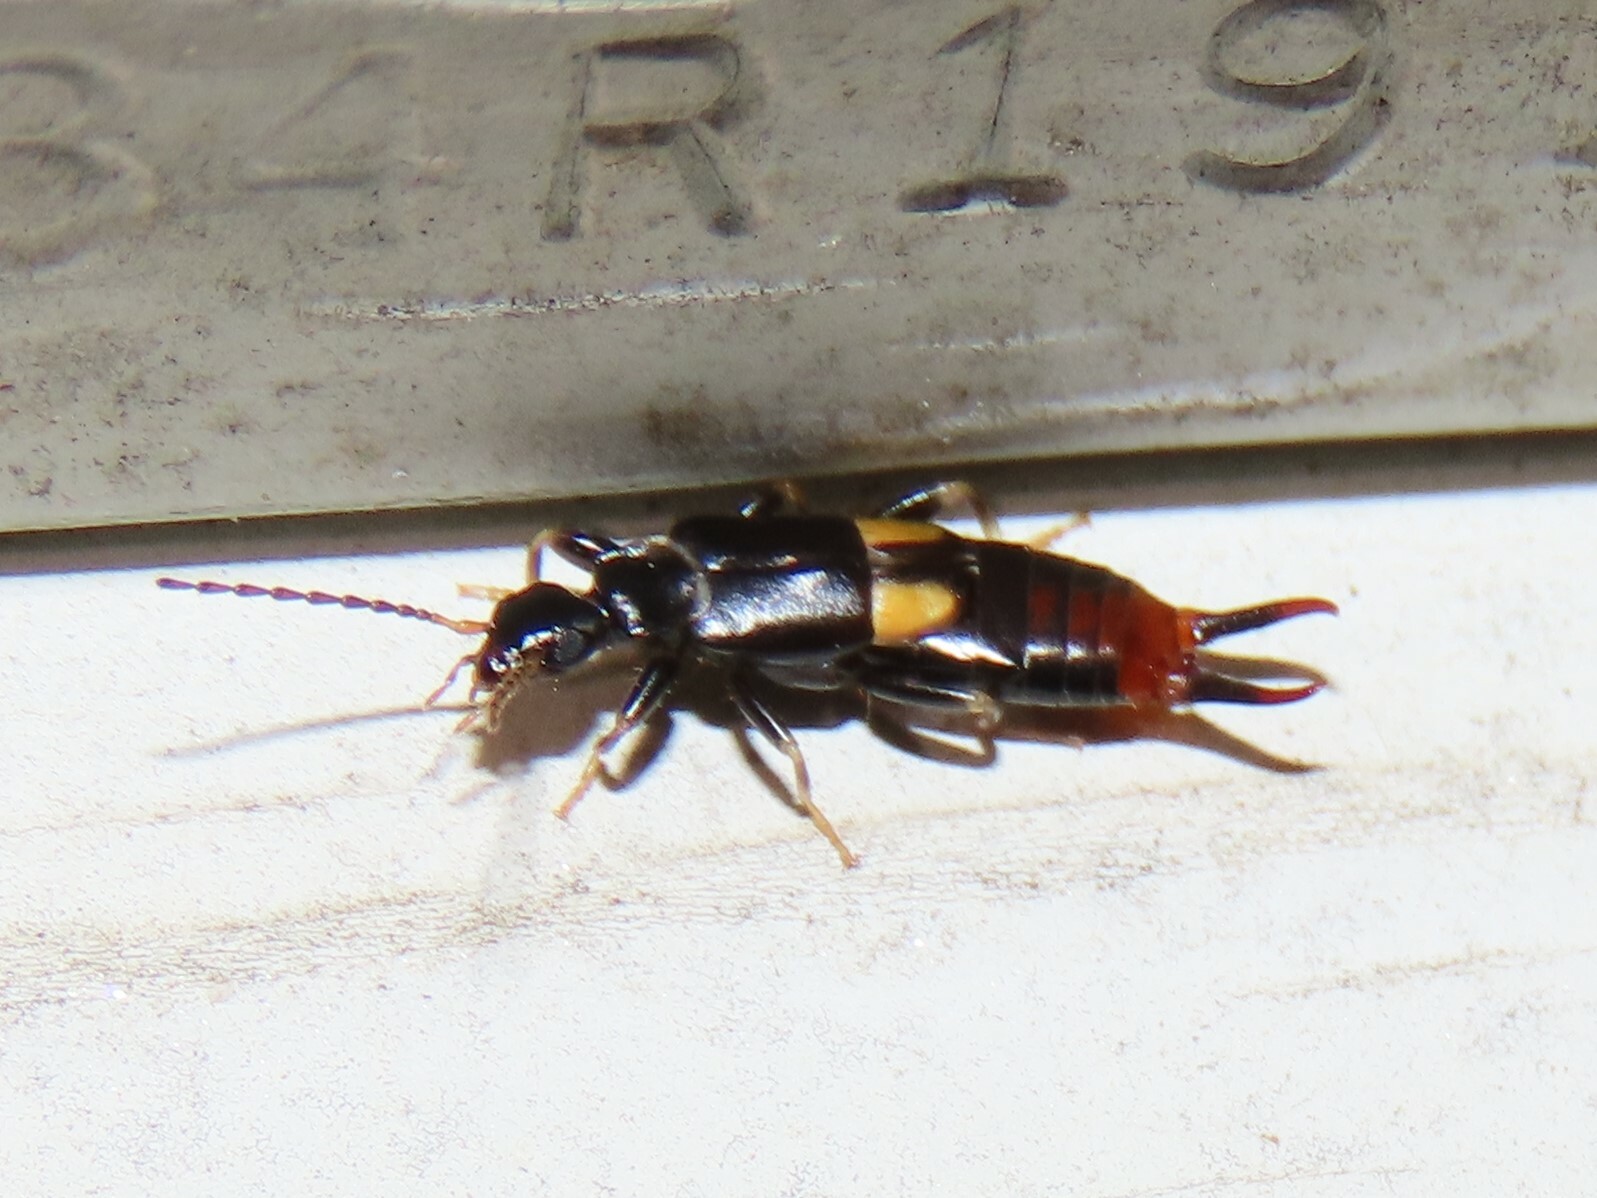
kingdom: Animalia
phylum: Arthropoda
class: Insecta
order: Dermaptera
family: Spongiphoridae
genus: Marava
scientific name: Marava arachidis
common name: Little earwig
